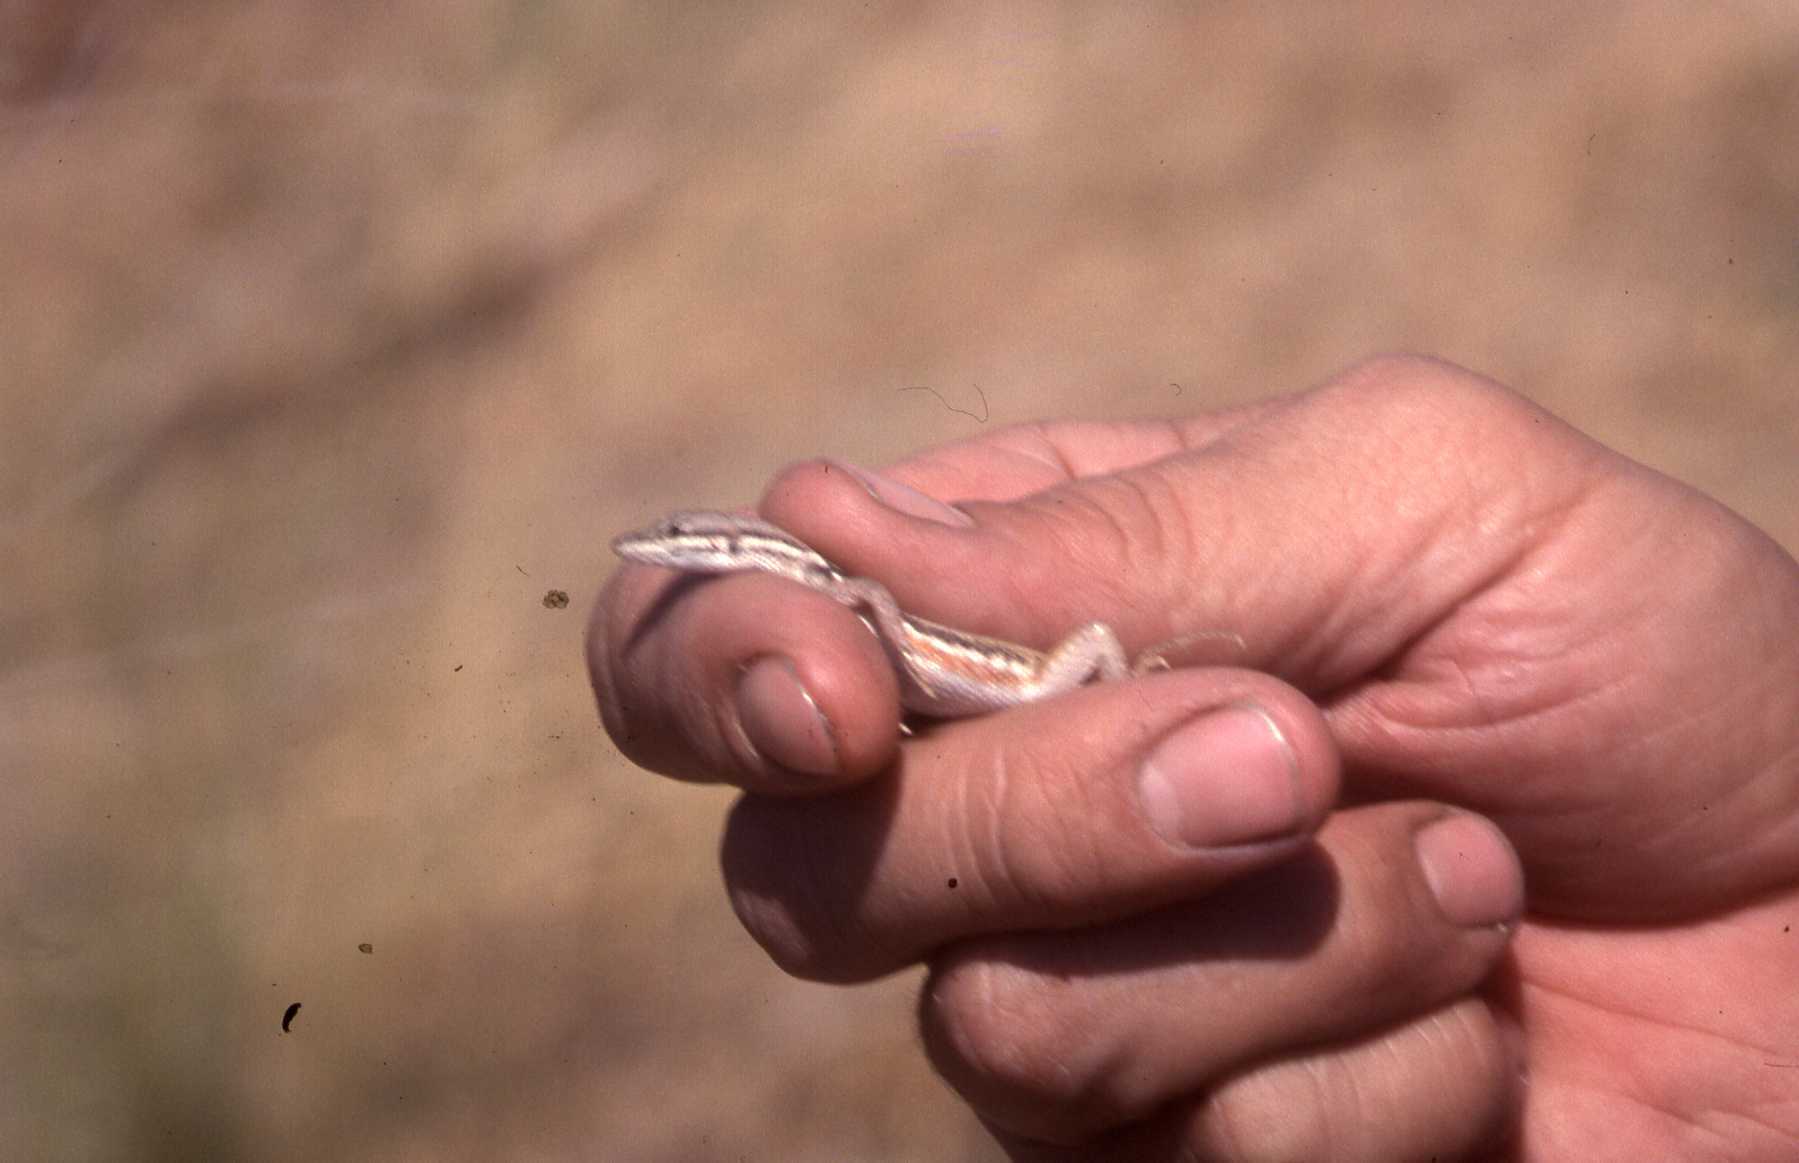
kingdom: Animalia
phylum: Chordata
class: Squamata
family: Lacertidae
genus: Ichnotropis
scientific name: Ichnotropis capensis
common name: Cape rough-scaled lizard
